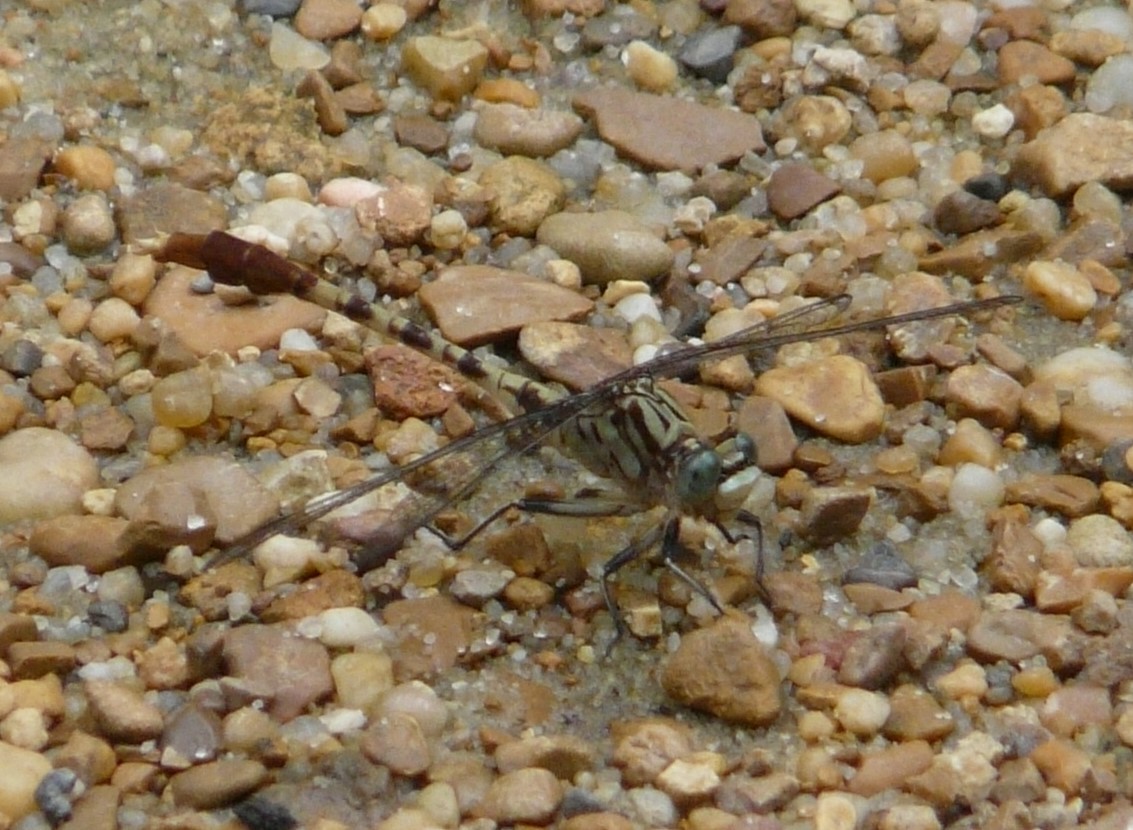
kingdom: Animalia
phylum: Arthropoda
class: Insecta
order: Odonata
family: Gomphidae
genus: Arigomphus
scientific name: Arigomphus submedianus
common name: Jade clubtail
